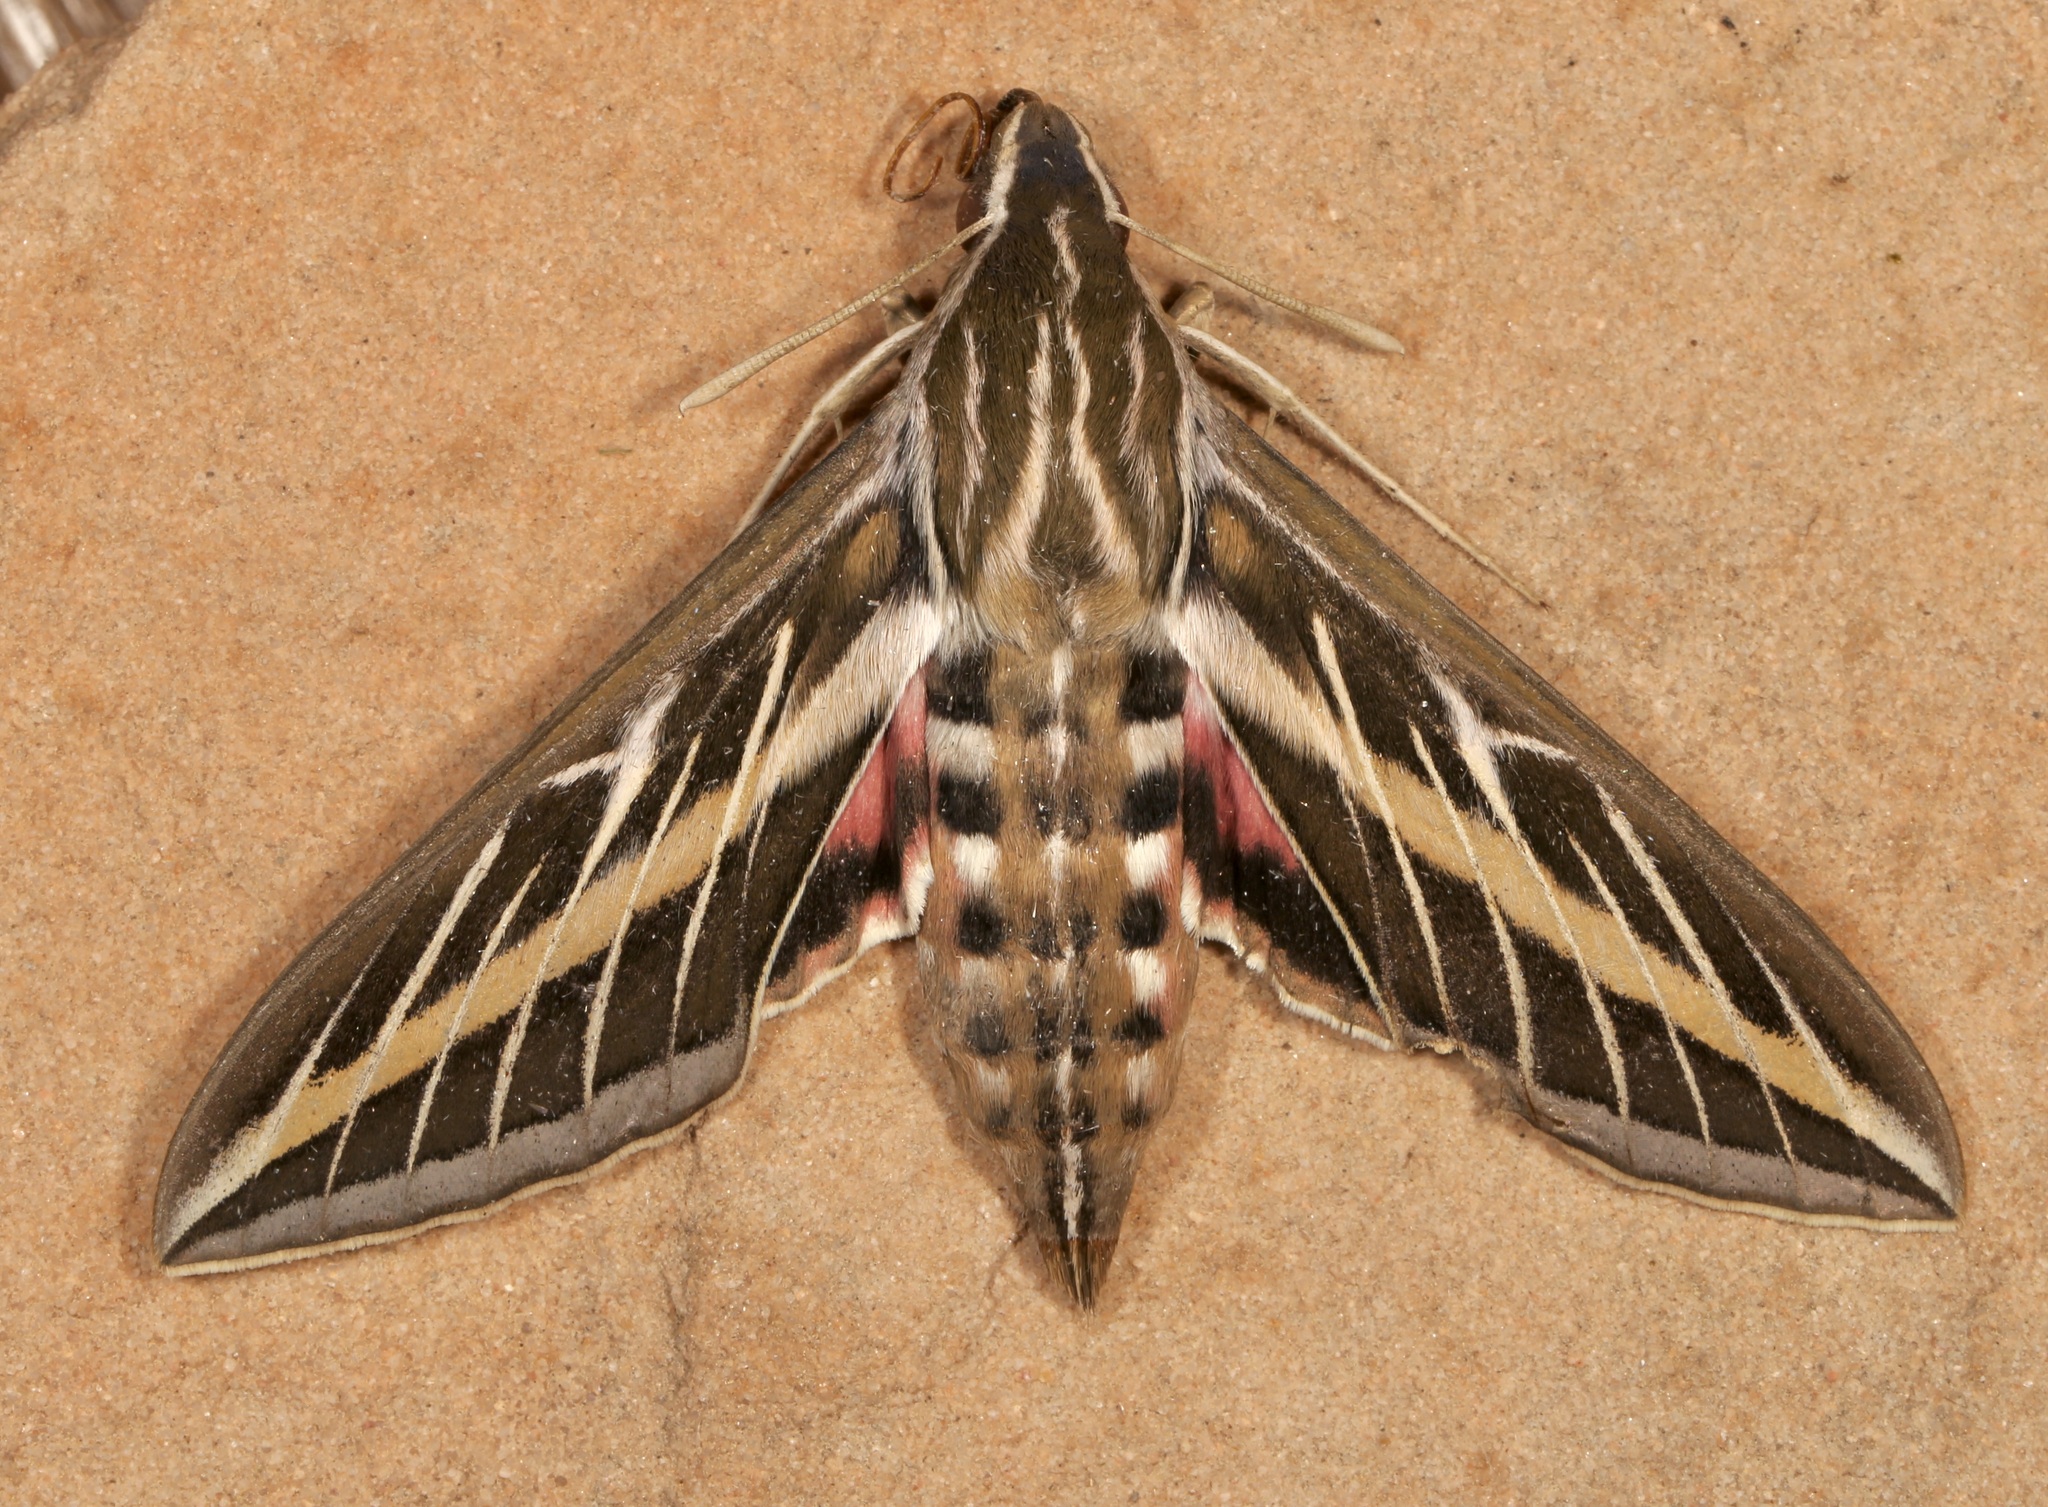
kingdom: Animalia
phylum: Arthropoda
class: Insecta
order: Lepidoptera
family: Sphingidae
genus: Hyles
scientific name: Hyles lineata
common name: White-lined sphinx
